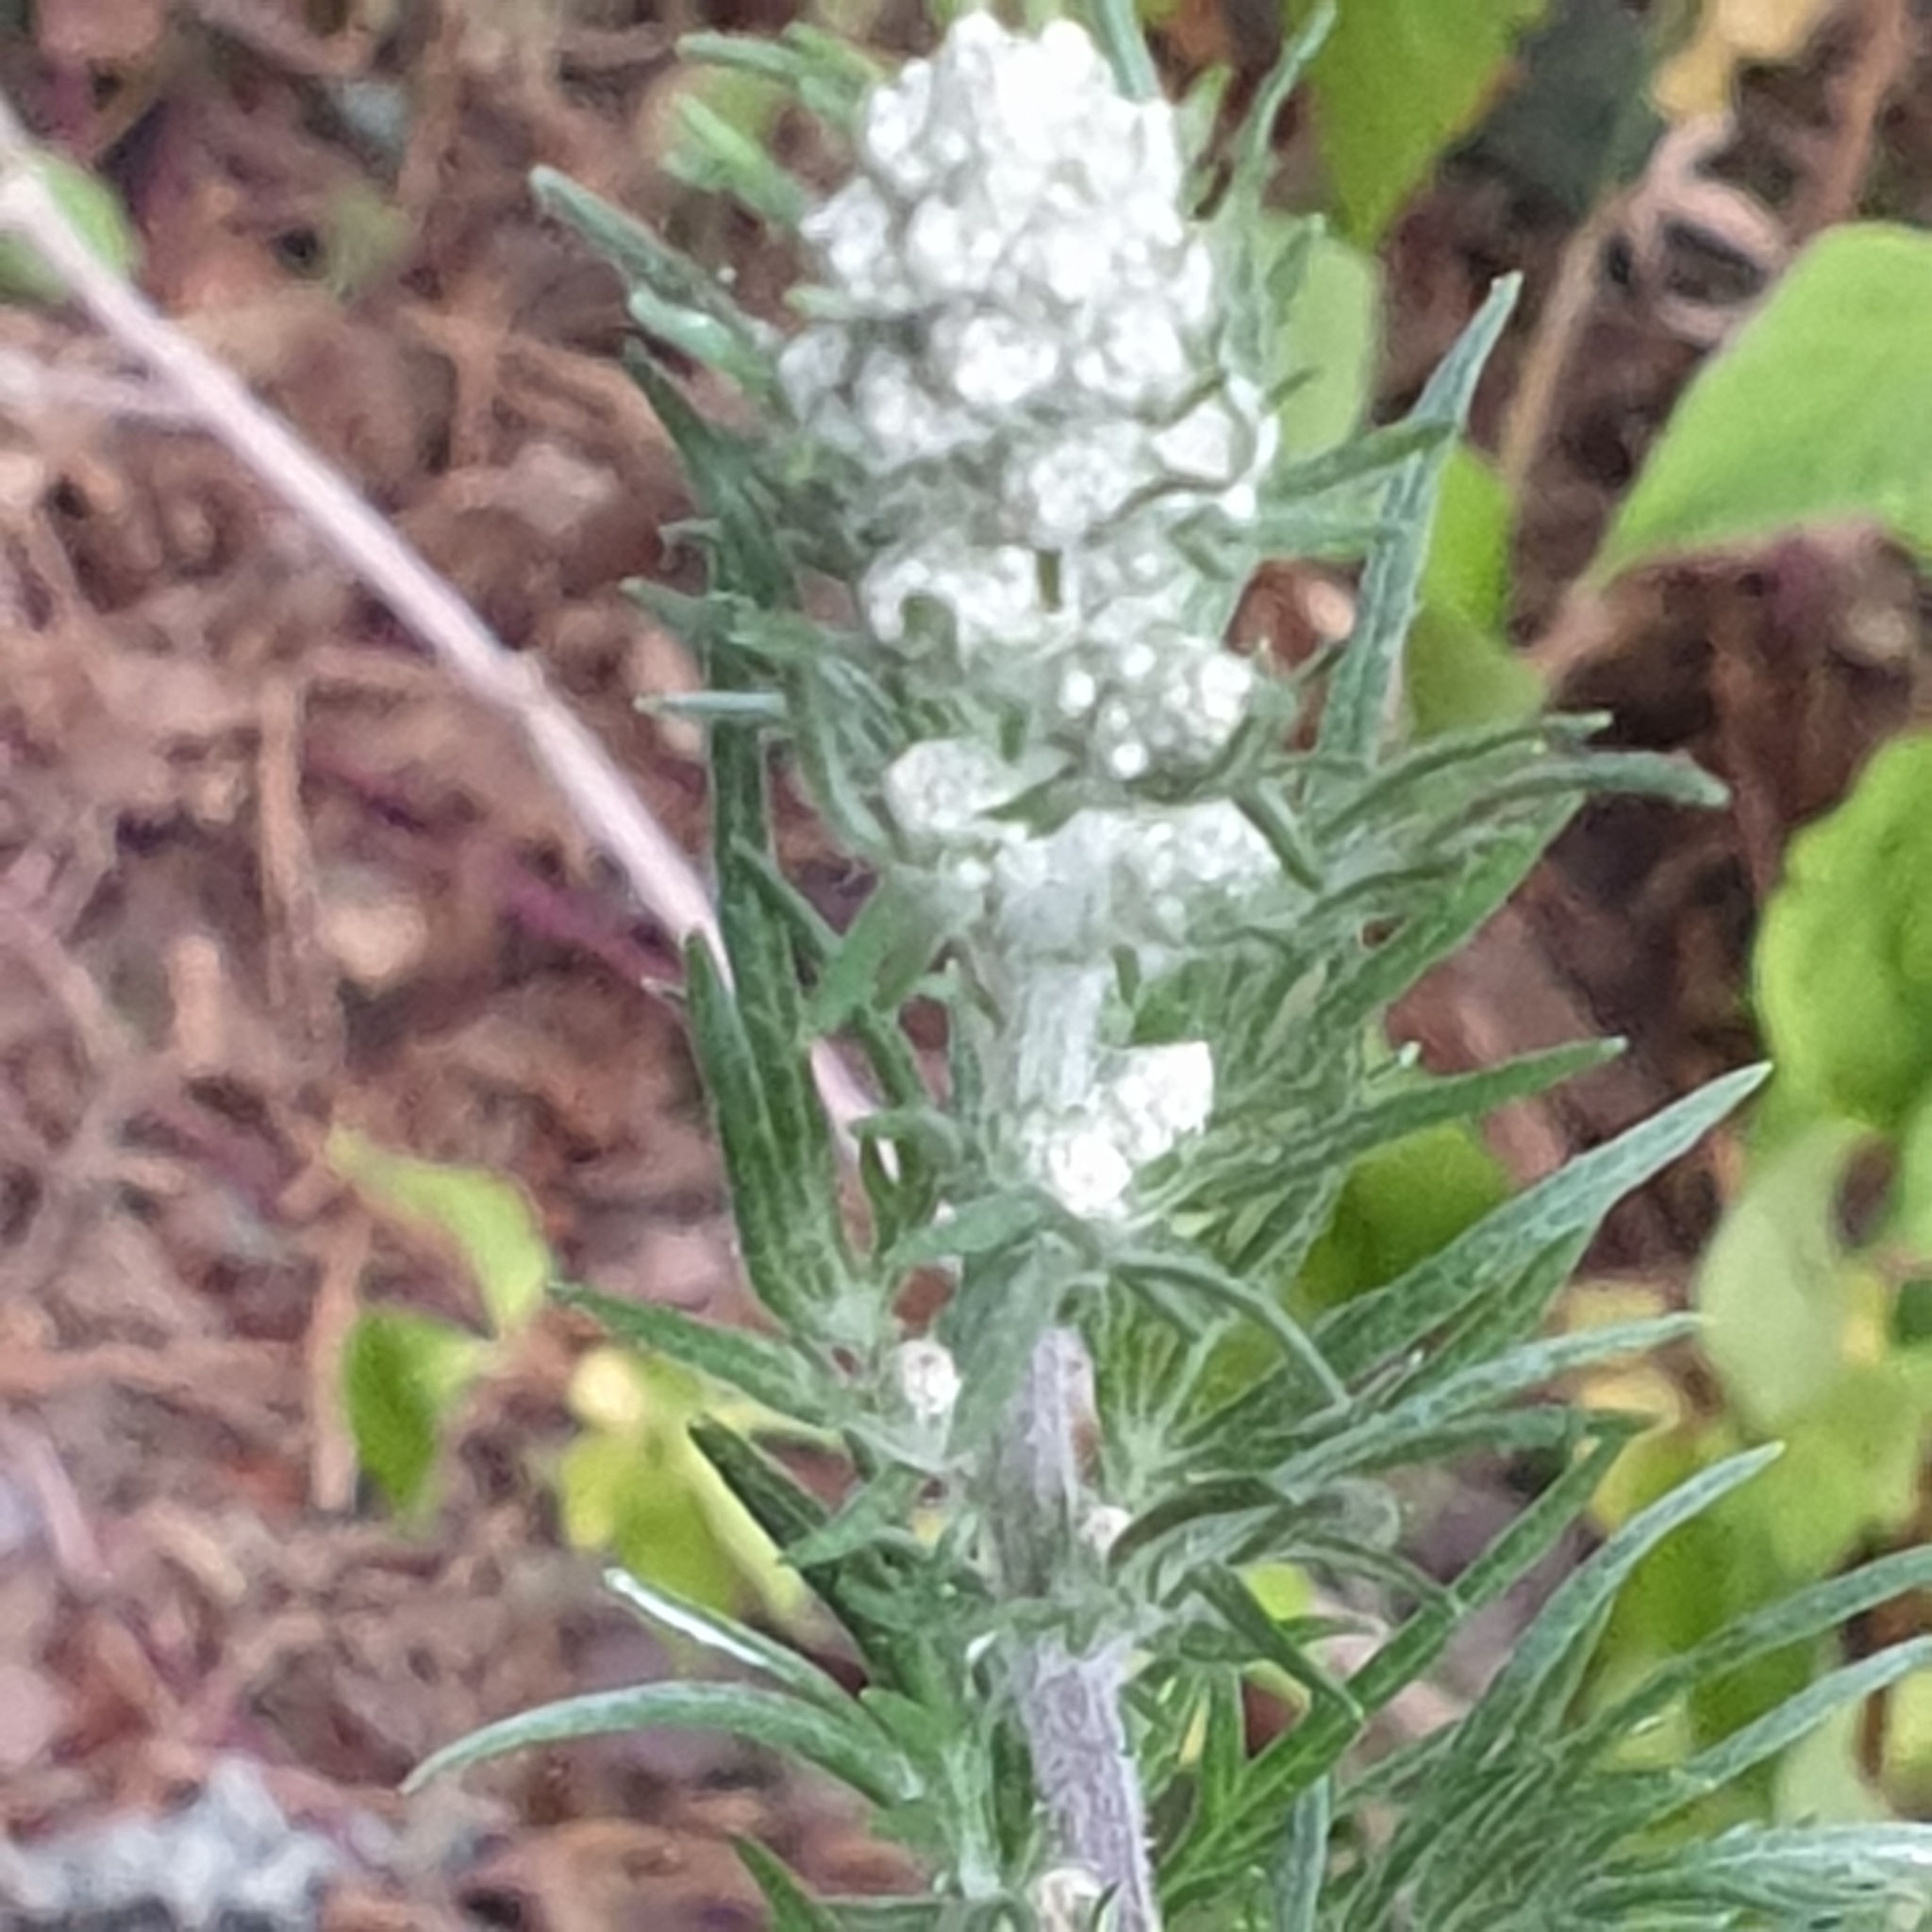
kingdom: Plantae
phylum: Tracheophyta
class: Magnoliopsida
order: Asterales
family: Asteraceae
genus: Artemisia
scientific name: Artemisia vulgaris
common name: Mugwort
